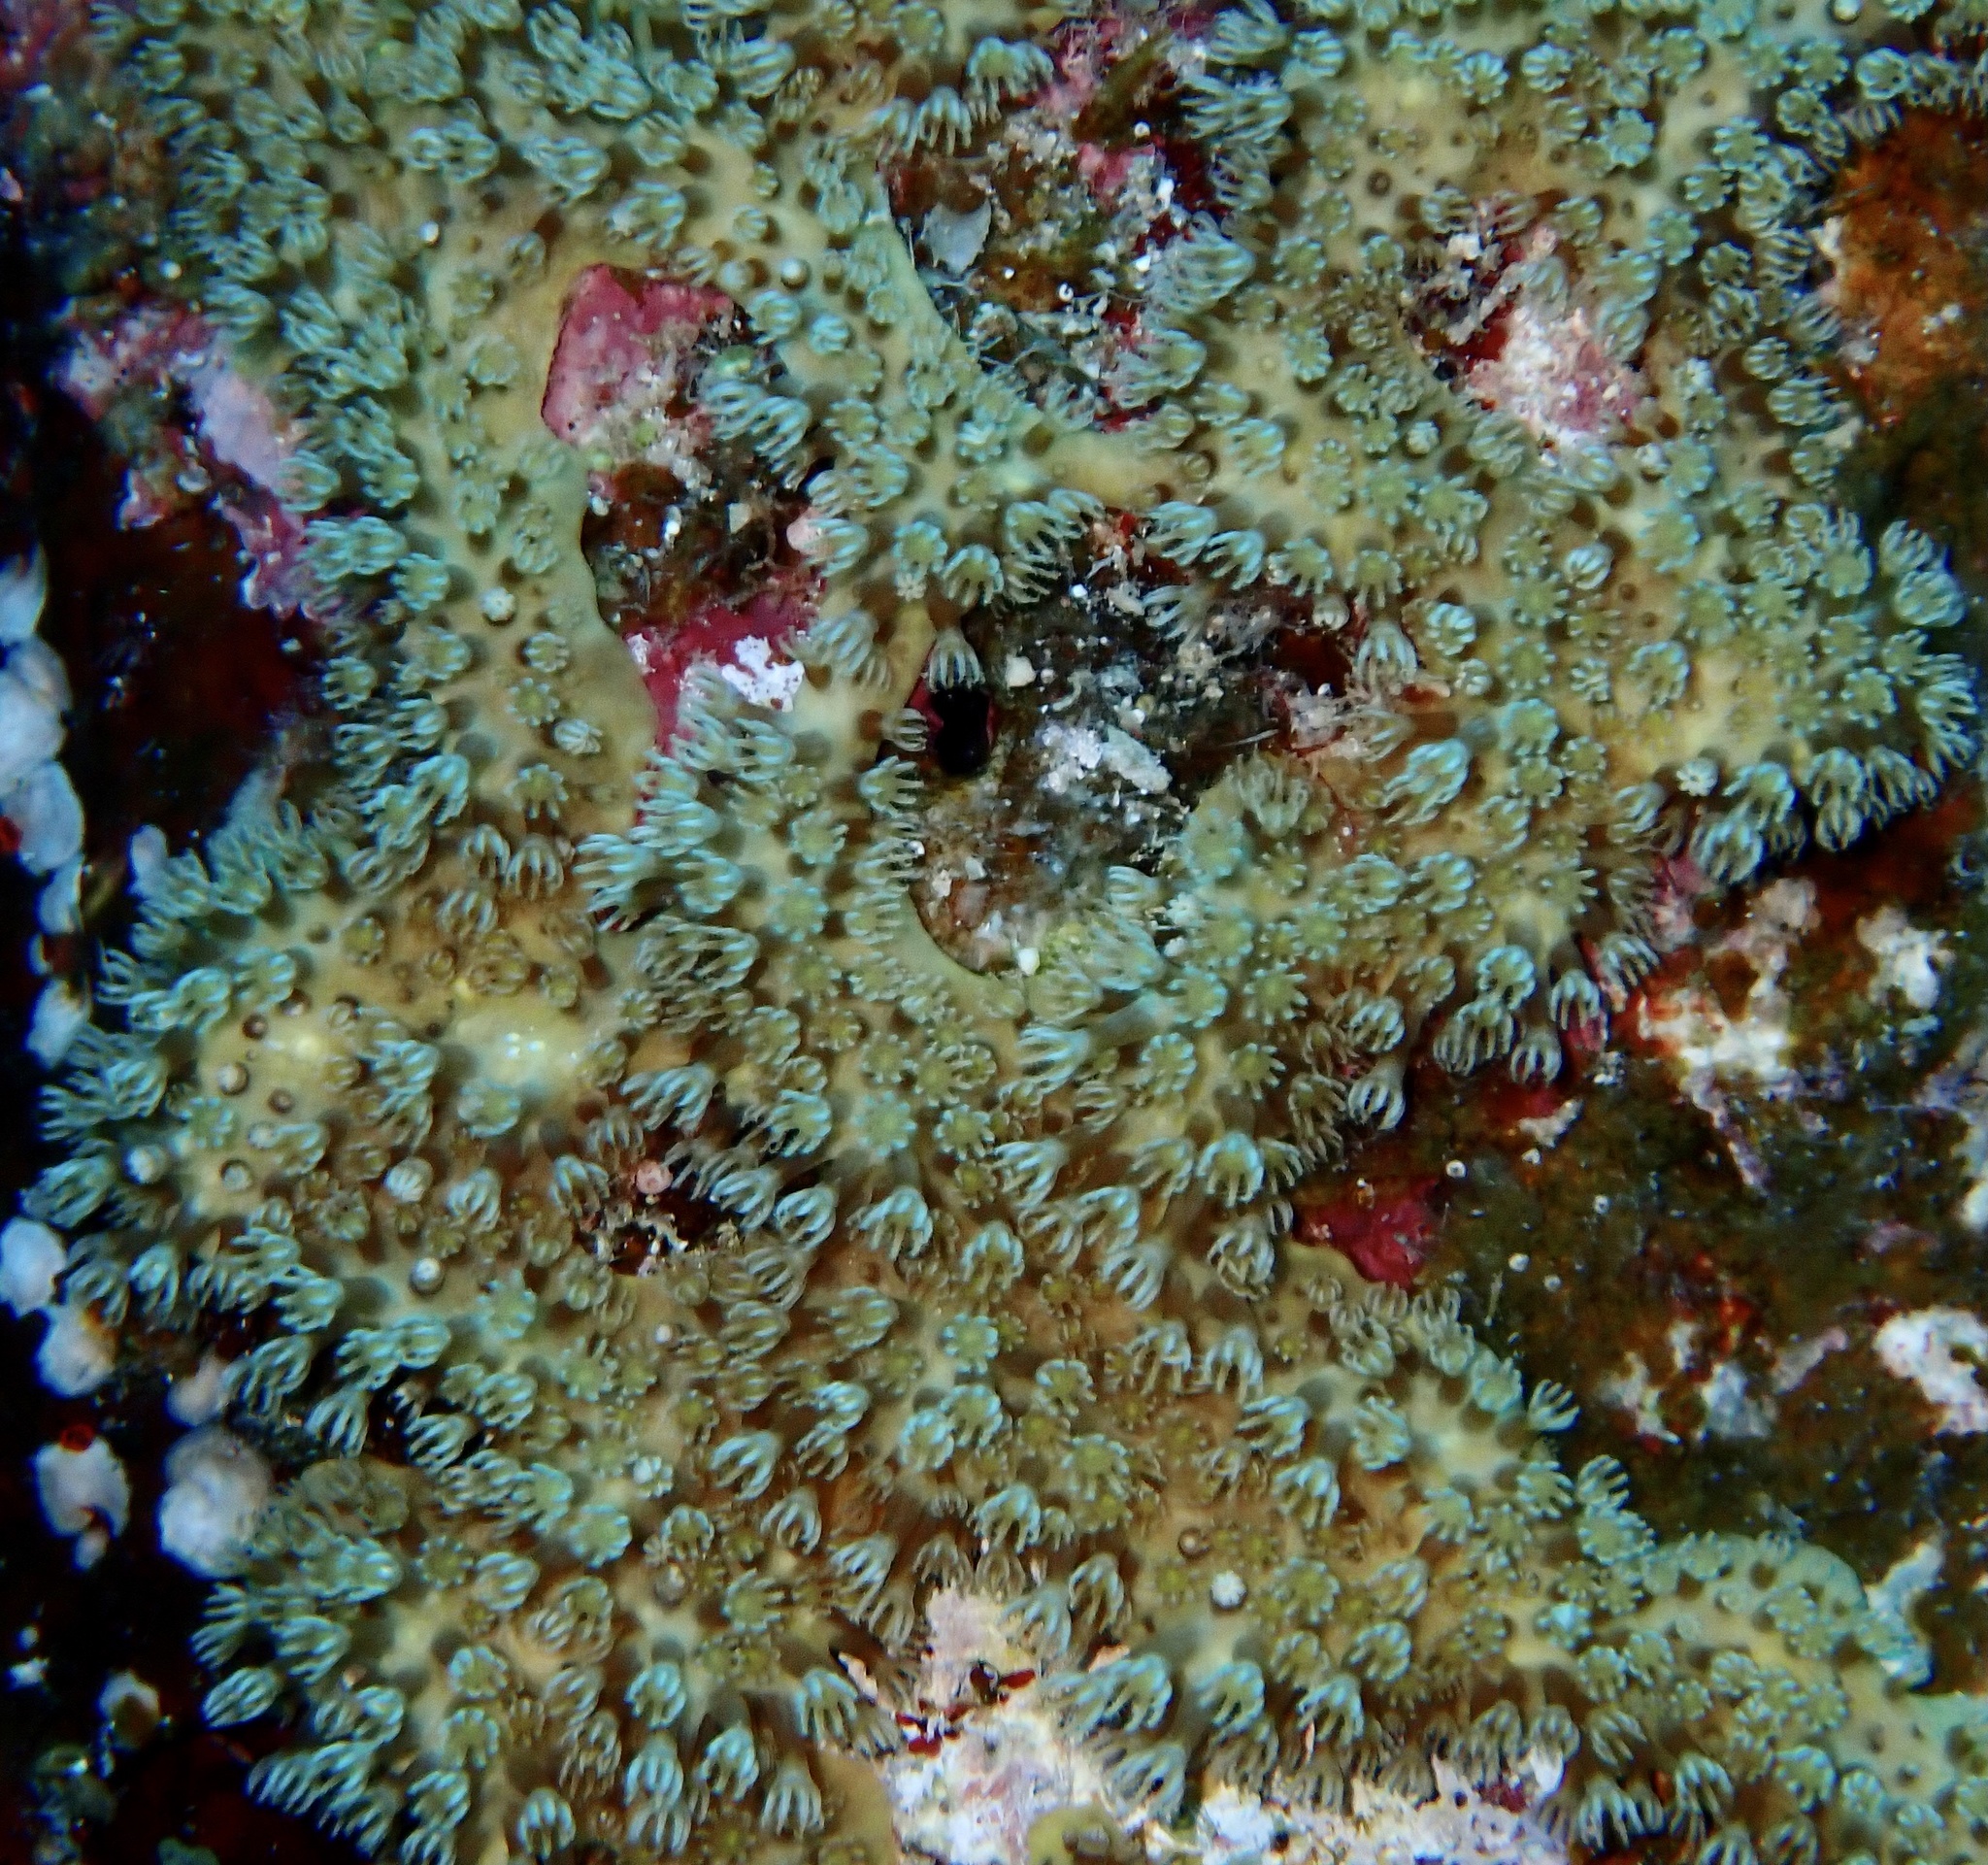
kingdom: Animalia
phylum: Cnidaria
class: Anthozoa
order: Malacalcyonacea
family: Lemnaliadae
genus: Rhytisma
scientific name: Rhytisma fulvum
